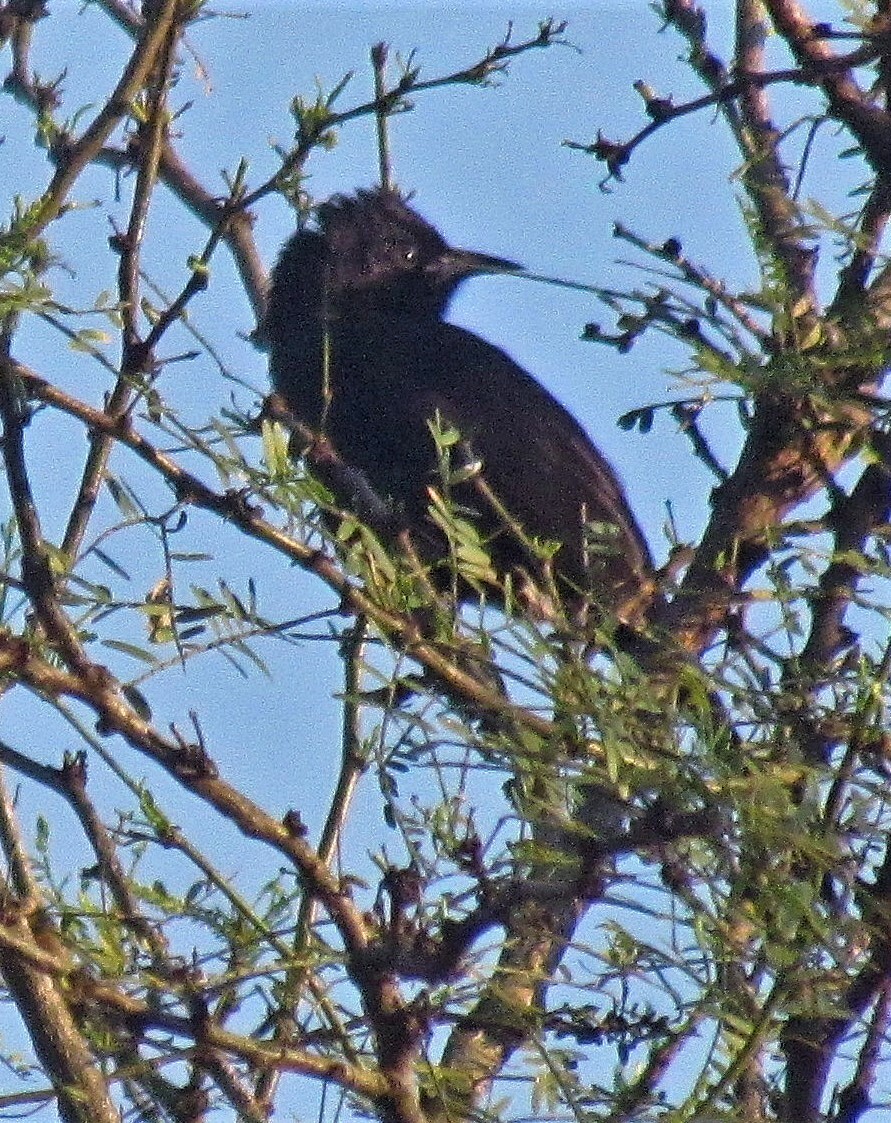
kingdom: Animalia
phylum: Chordata
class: Aves
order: Passeriformes
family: Icteridae
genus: Icterus
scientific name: Icterus cayanensis
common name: Epaulet oriole
